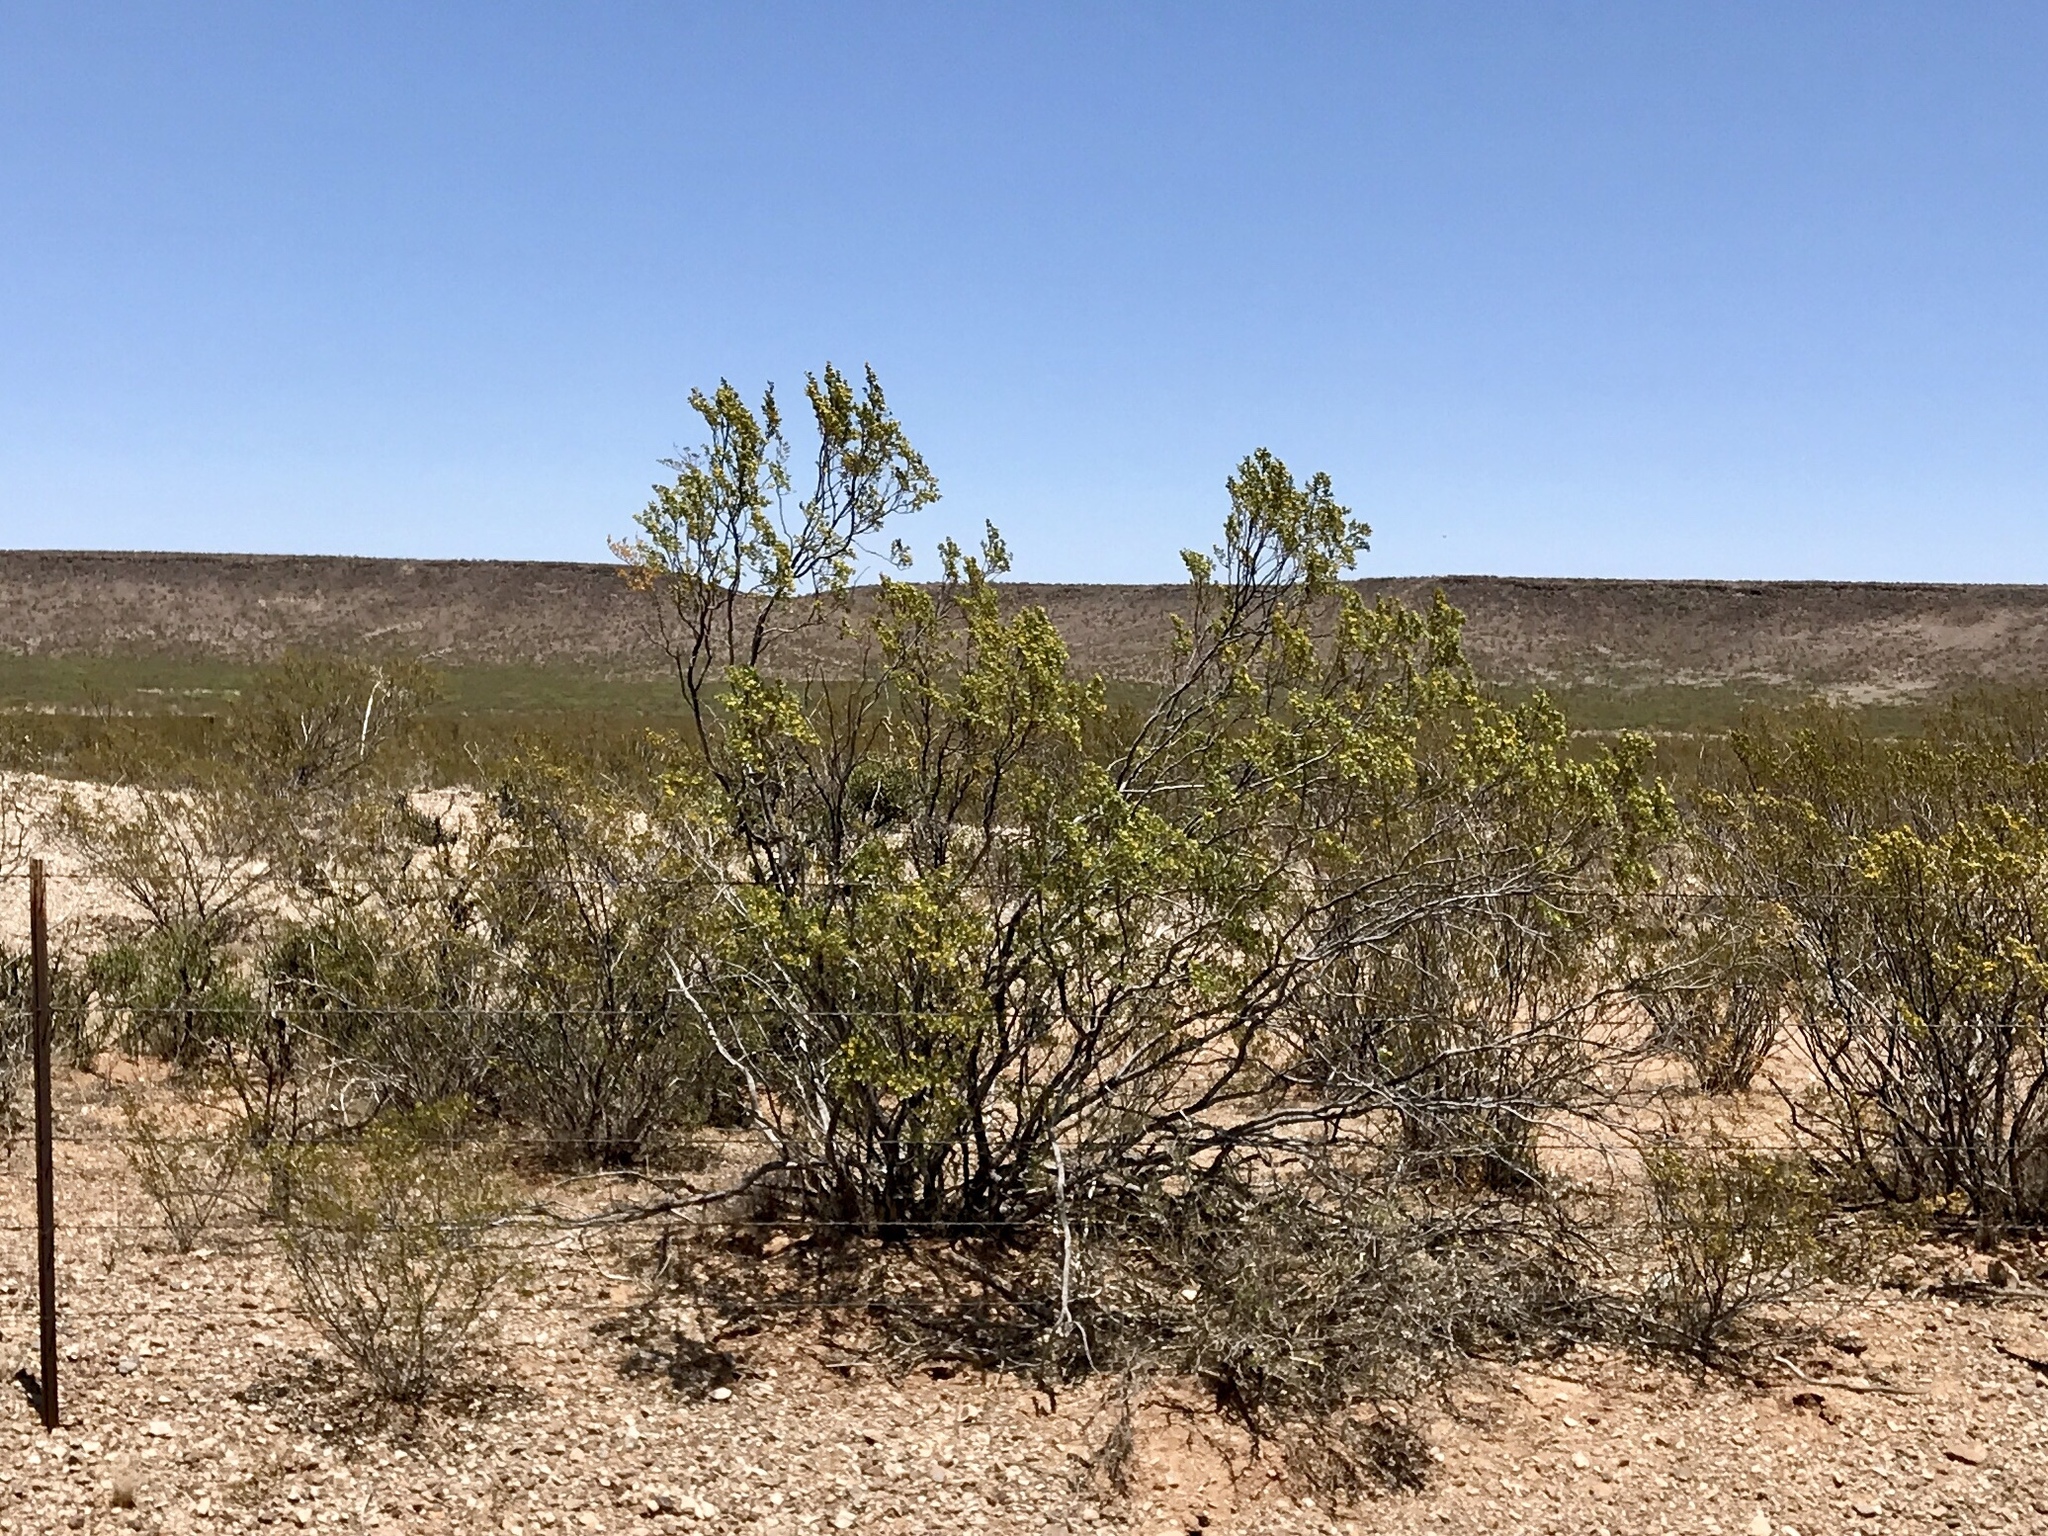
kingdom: Plantae
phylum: Tracheophyta
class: Magnoliopsida
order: Zygophyllales
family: Zygophyllaceae
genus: Larrea
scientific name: Larrea tridentata
